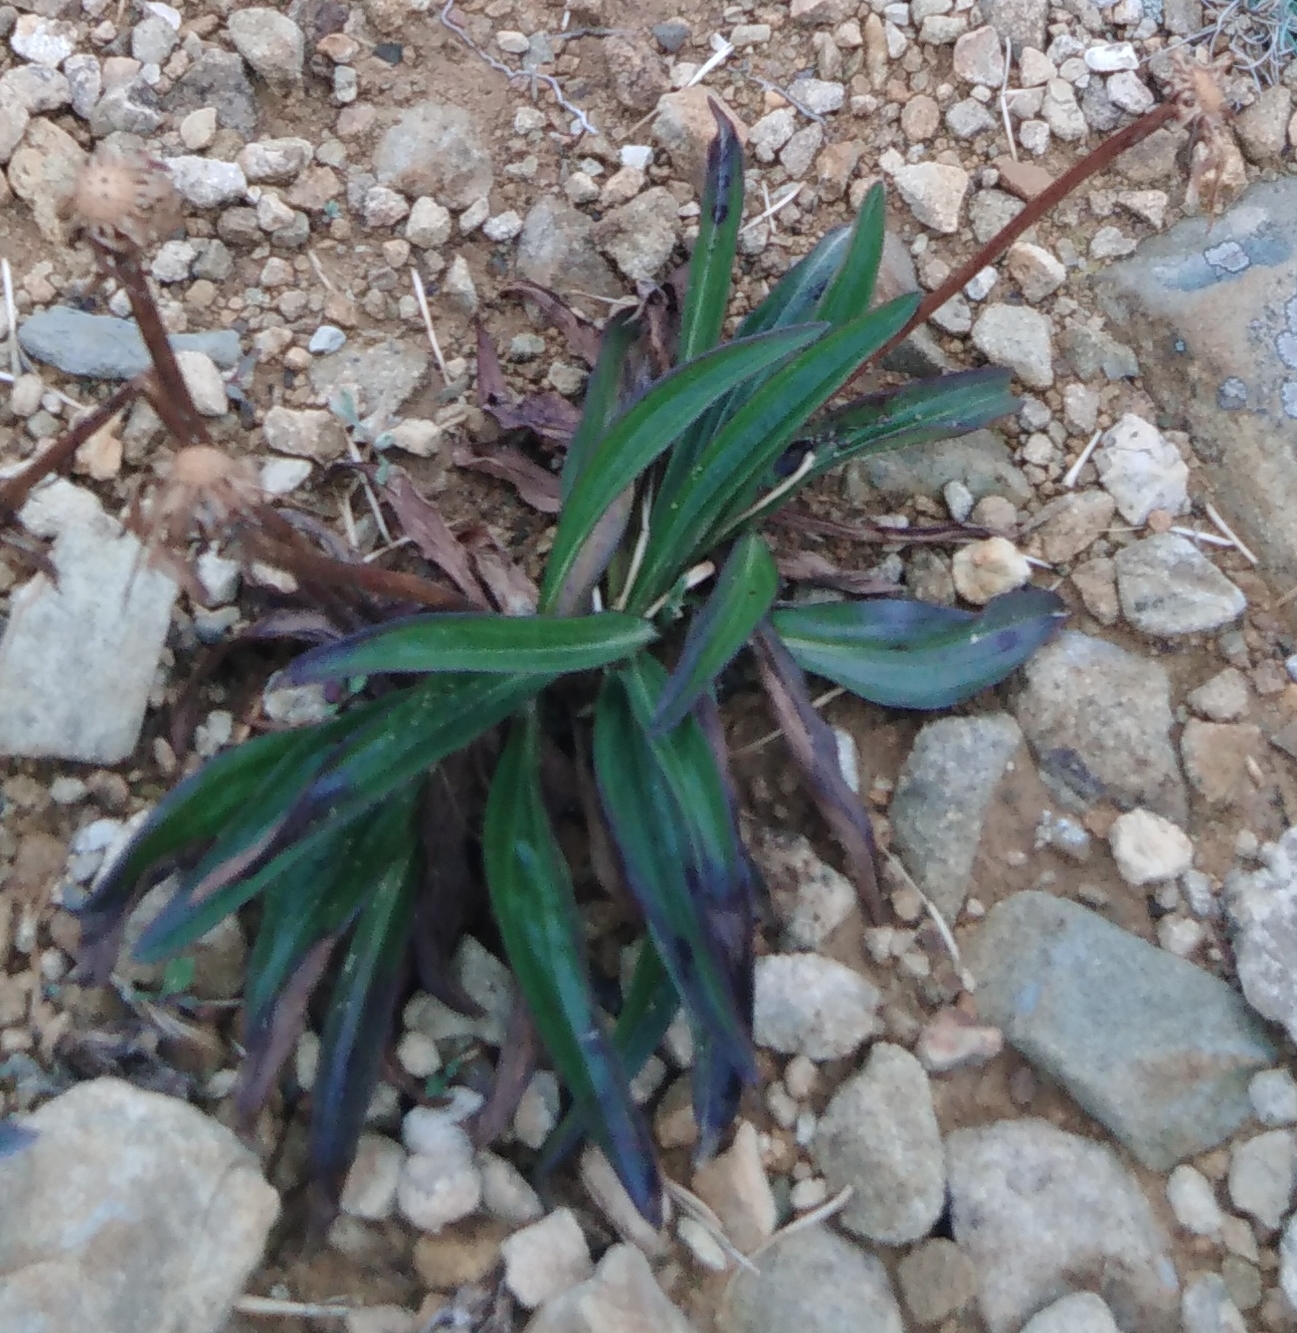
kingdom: Plantae
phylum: Tracheophyta
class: Magnoliopsida
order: Asterales
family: Asteraceae
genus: Scorzonera
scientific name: Scorzonera radiata
